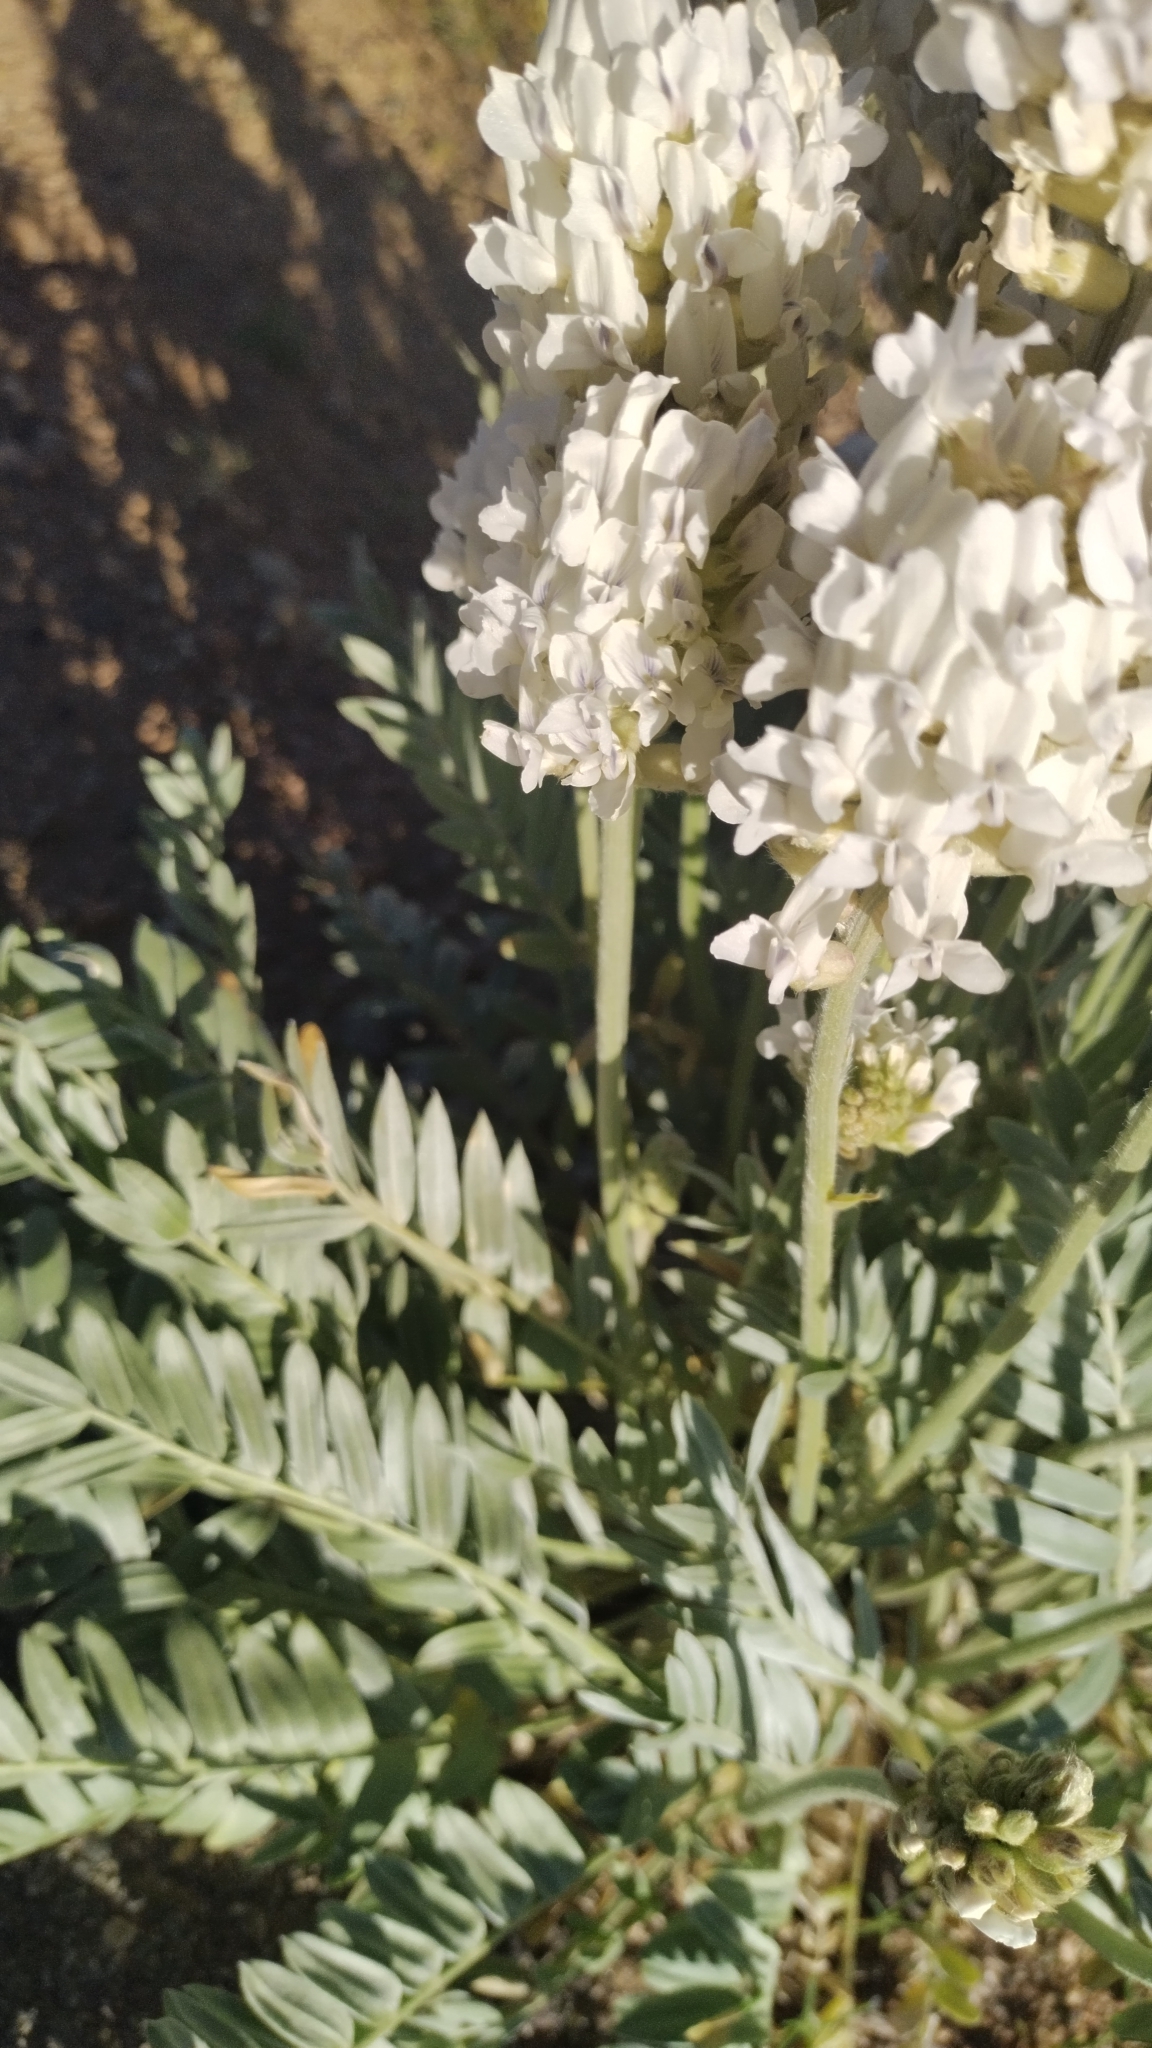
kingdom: Plantae
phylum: Tracheophyta
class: Magnoliopsida
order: Fabales
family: Fabaceae
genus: Oxytropis
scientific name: Oxytropis sericea
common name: Silky locoweed
